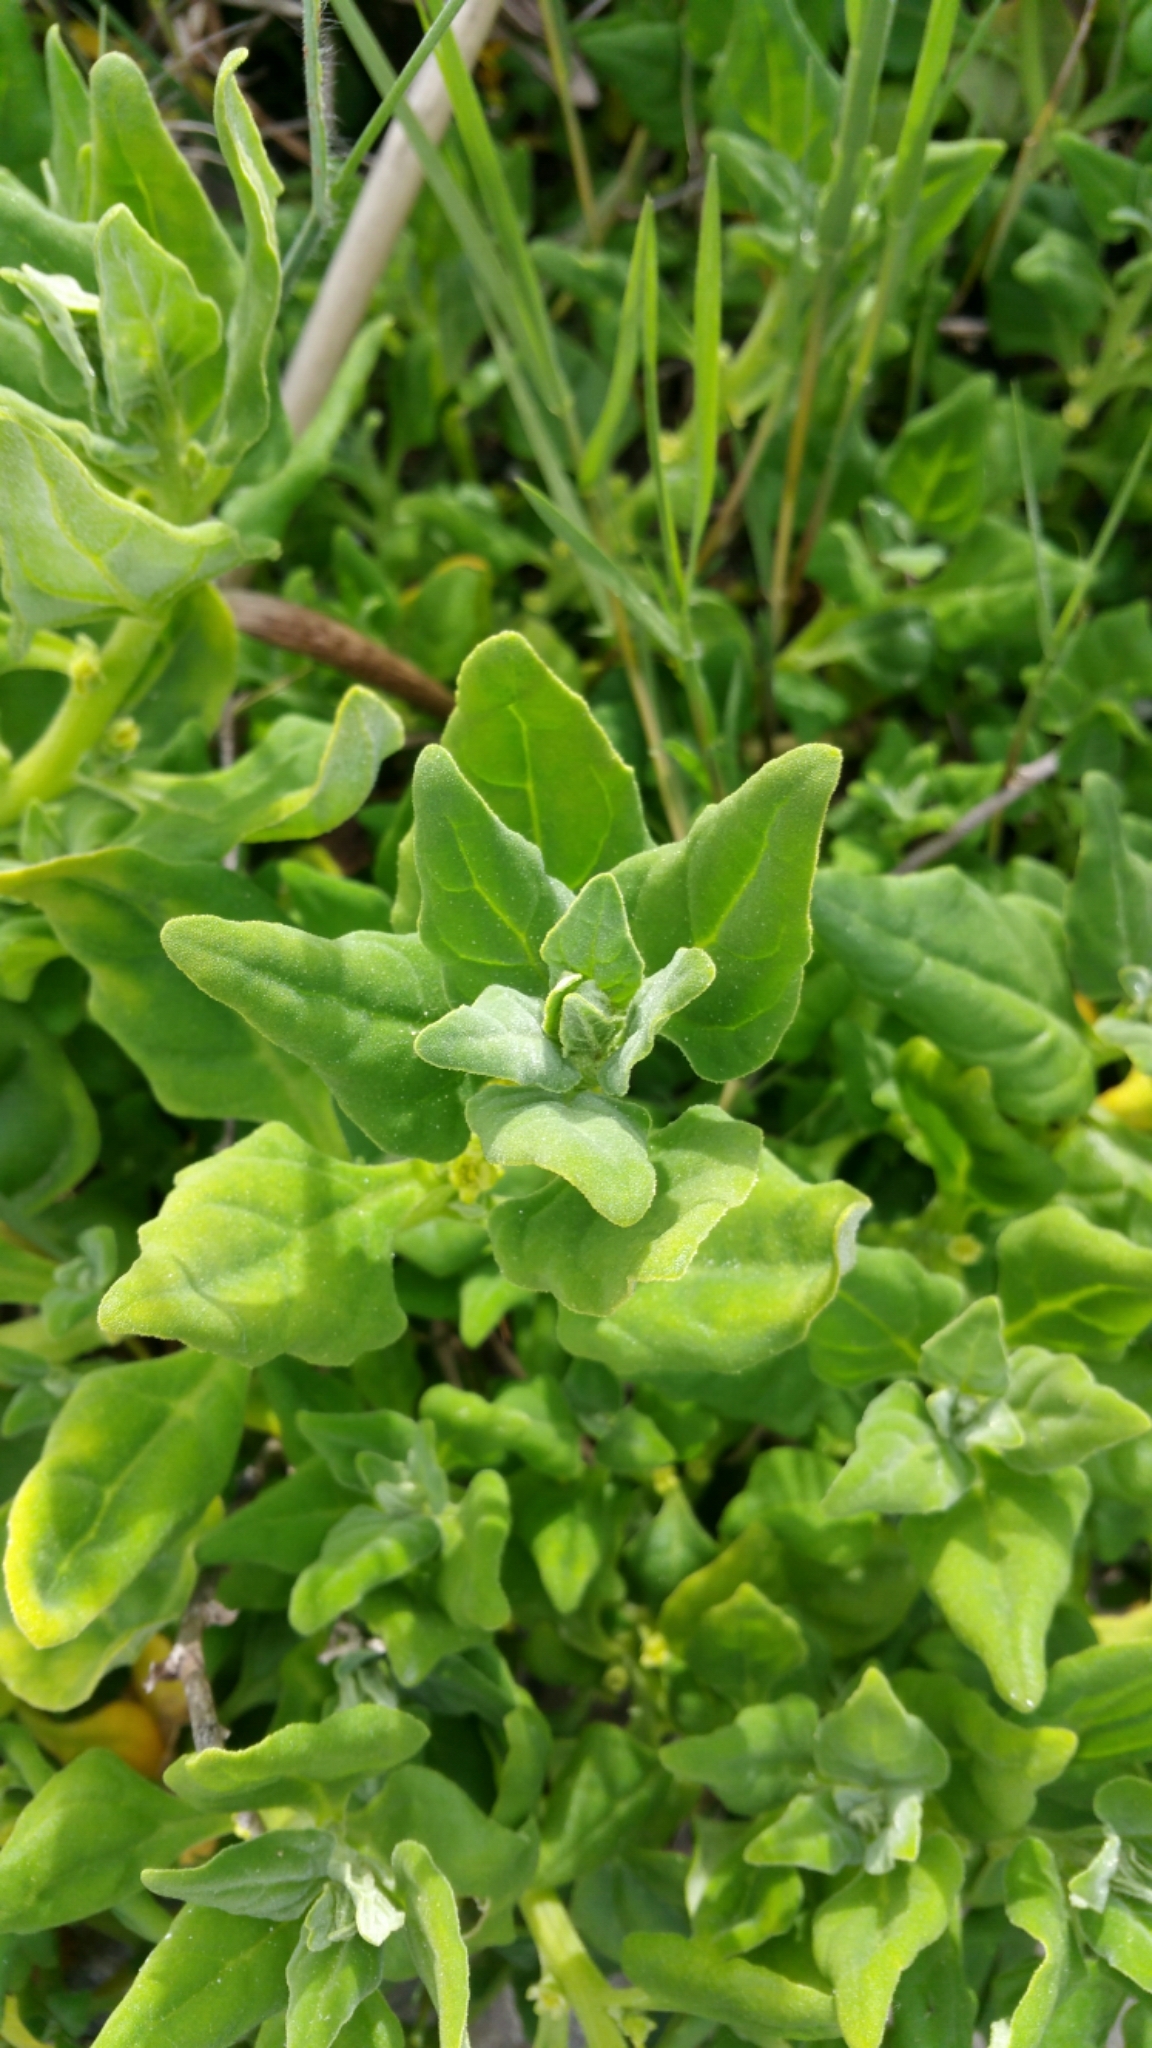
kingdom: Plantae
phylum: Tracheophyta
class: Magnoliopsida
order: Caryophyllales
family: Aizoaceae
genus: Tetragonia
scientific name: Tetragonia tetragonoides
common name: New zealand-spinach
